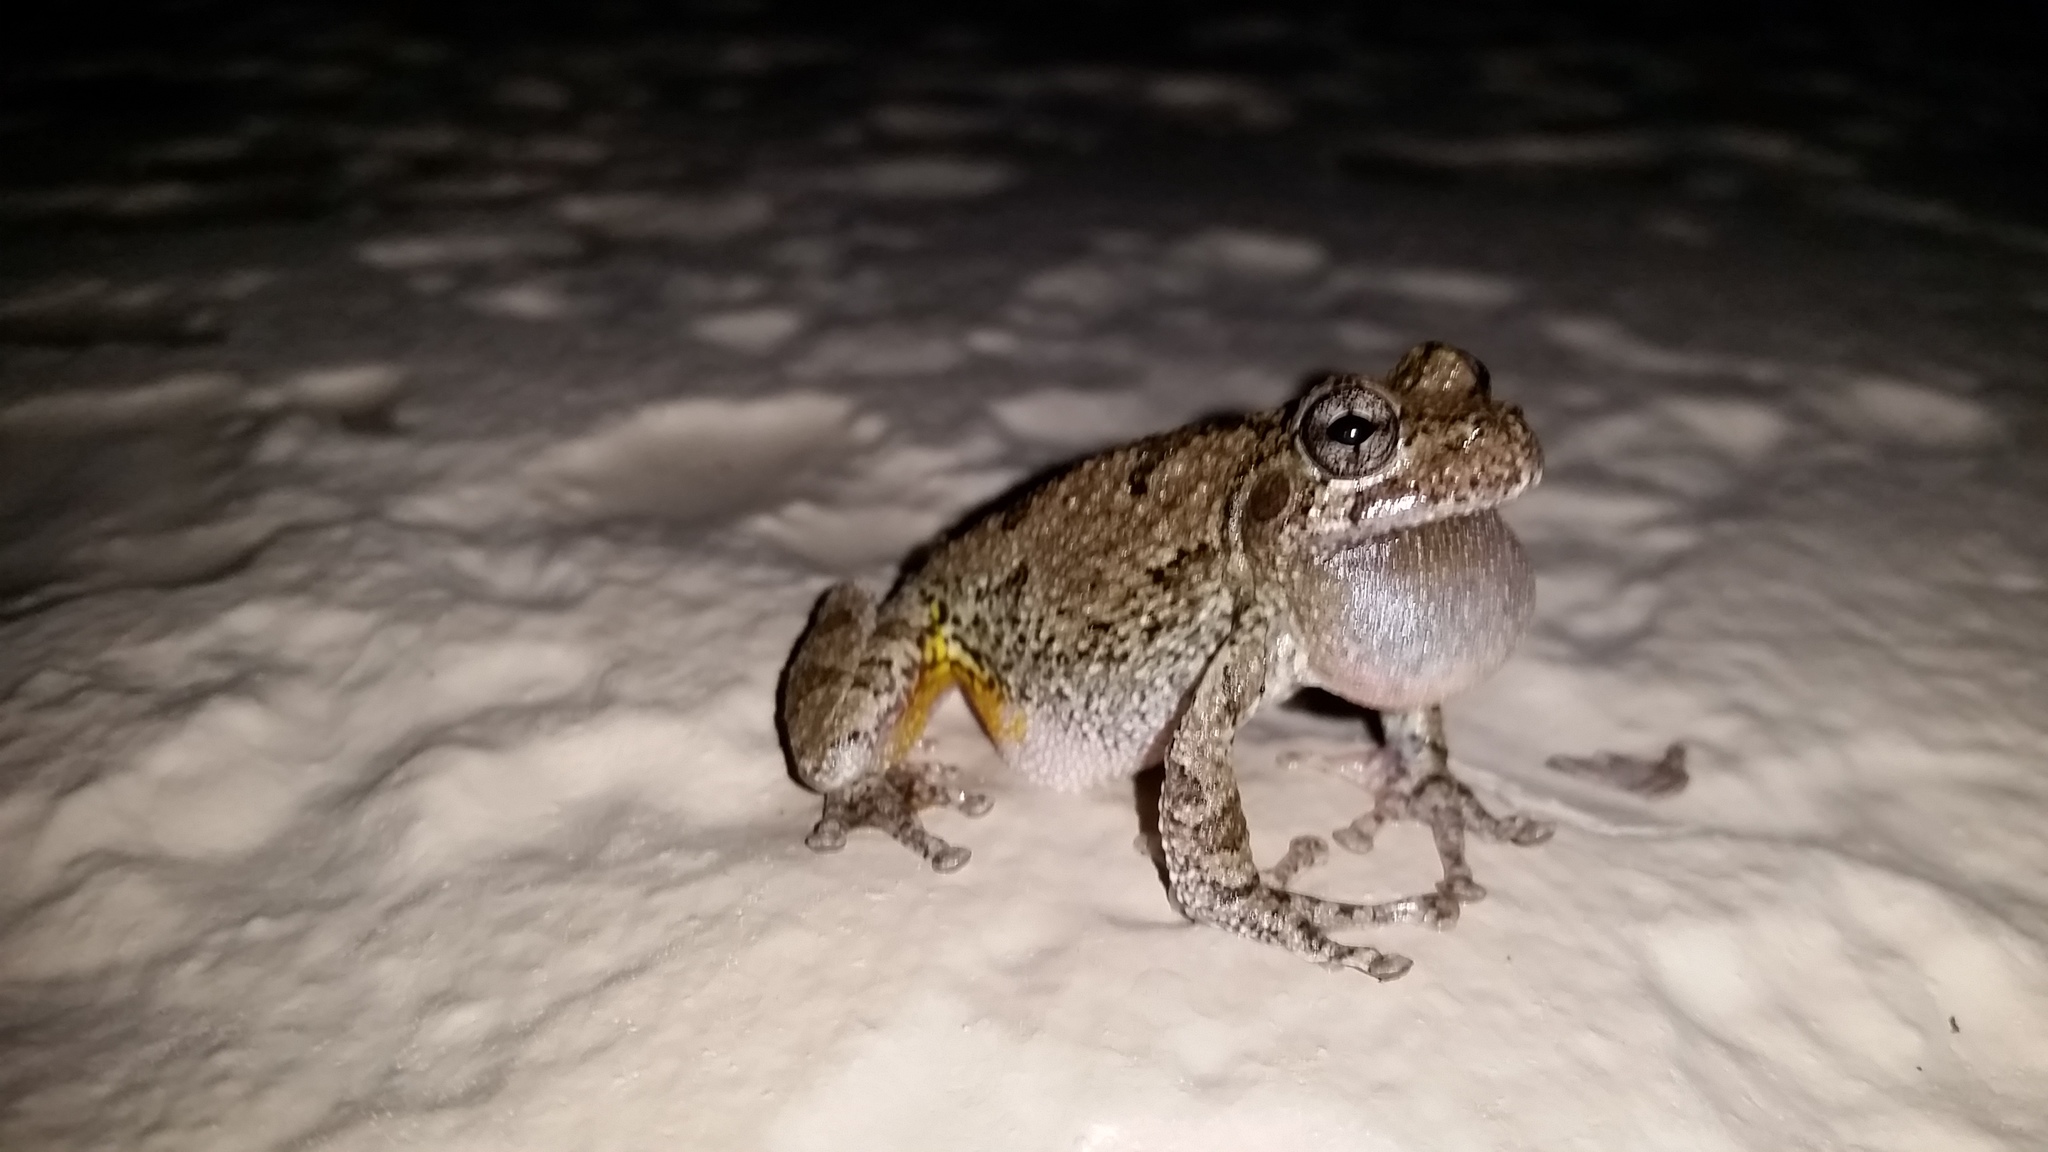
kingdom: Animalia
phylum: Chordata
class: Amphibia
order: Anura
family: Hylidae
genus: Dryophytes
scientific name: Dryophytes chrysoscelis
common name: Cope's gray treefrog
